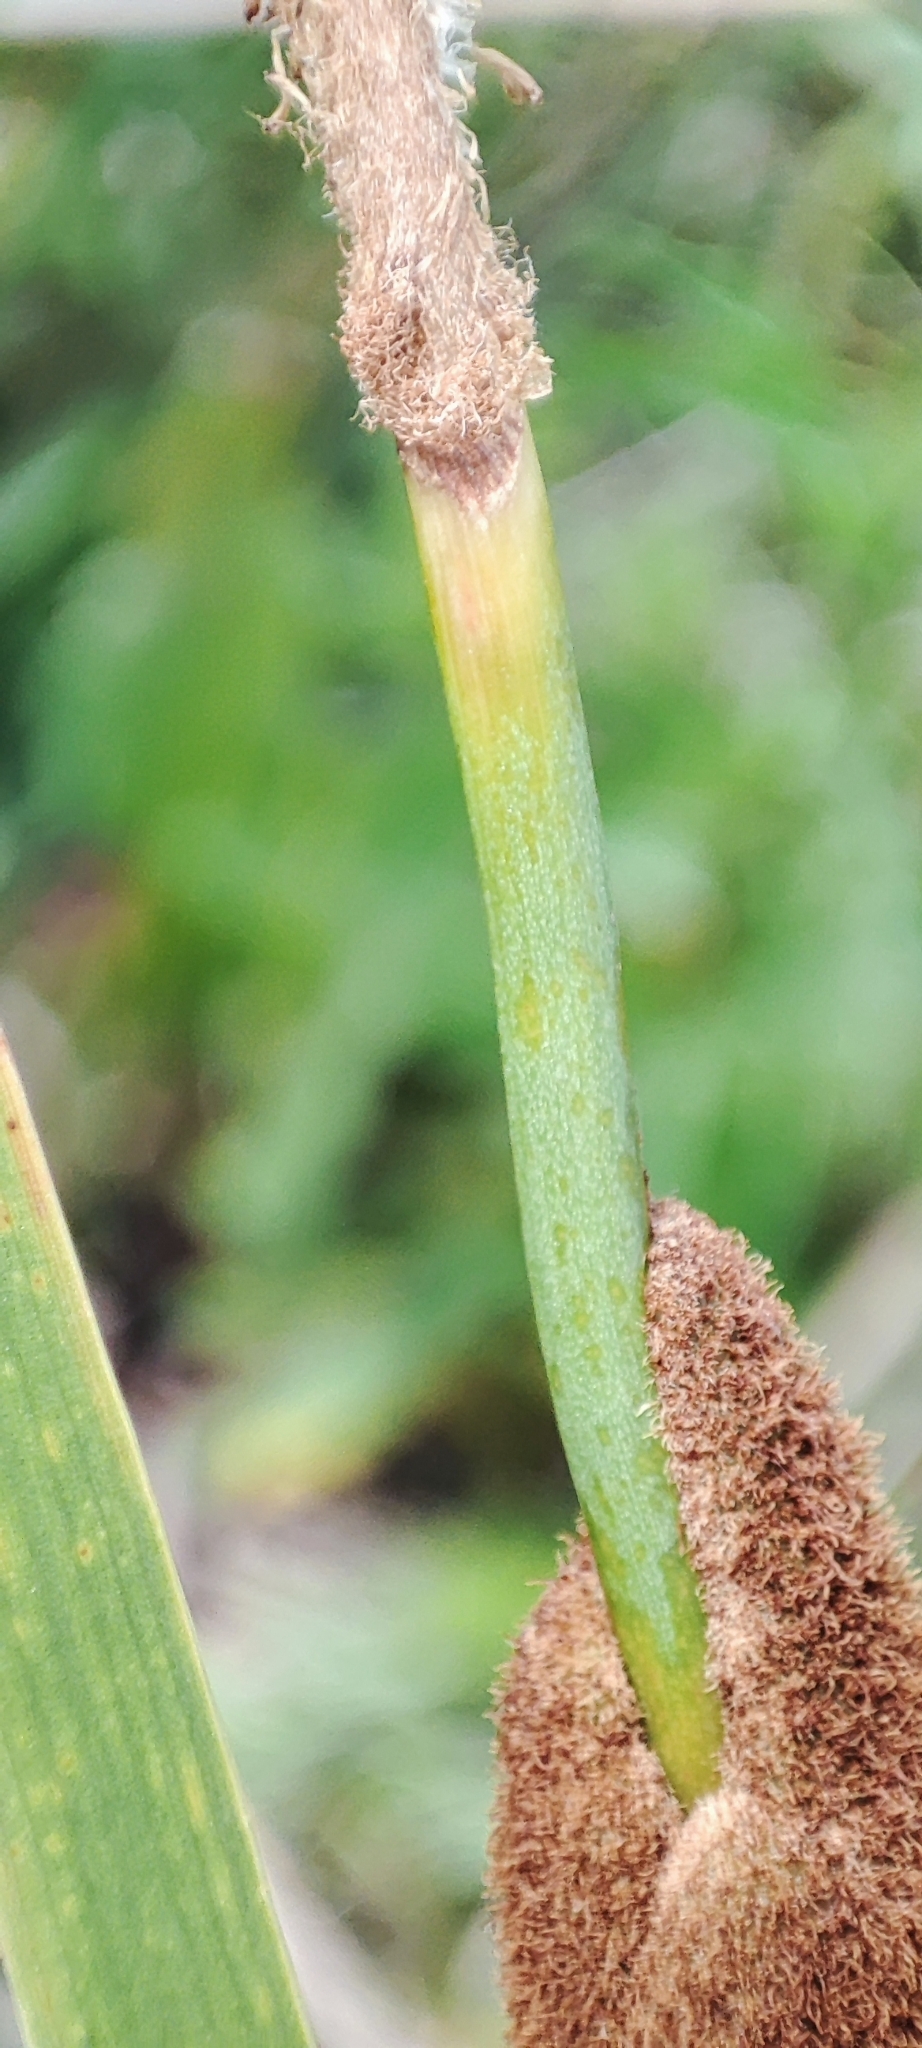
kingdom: Plantae
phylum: Tracheophyta
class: Liliopsida
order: Poales
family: Typhaceae
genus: Typha
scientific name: Typha linnaei
